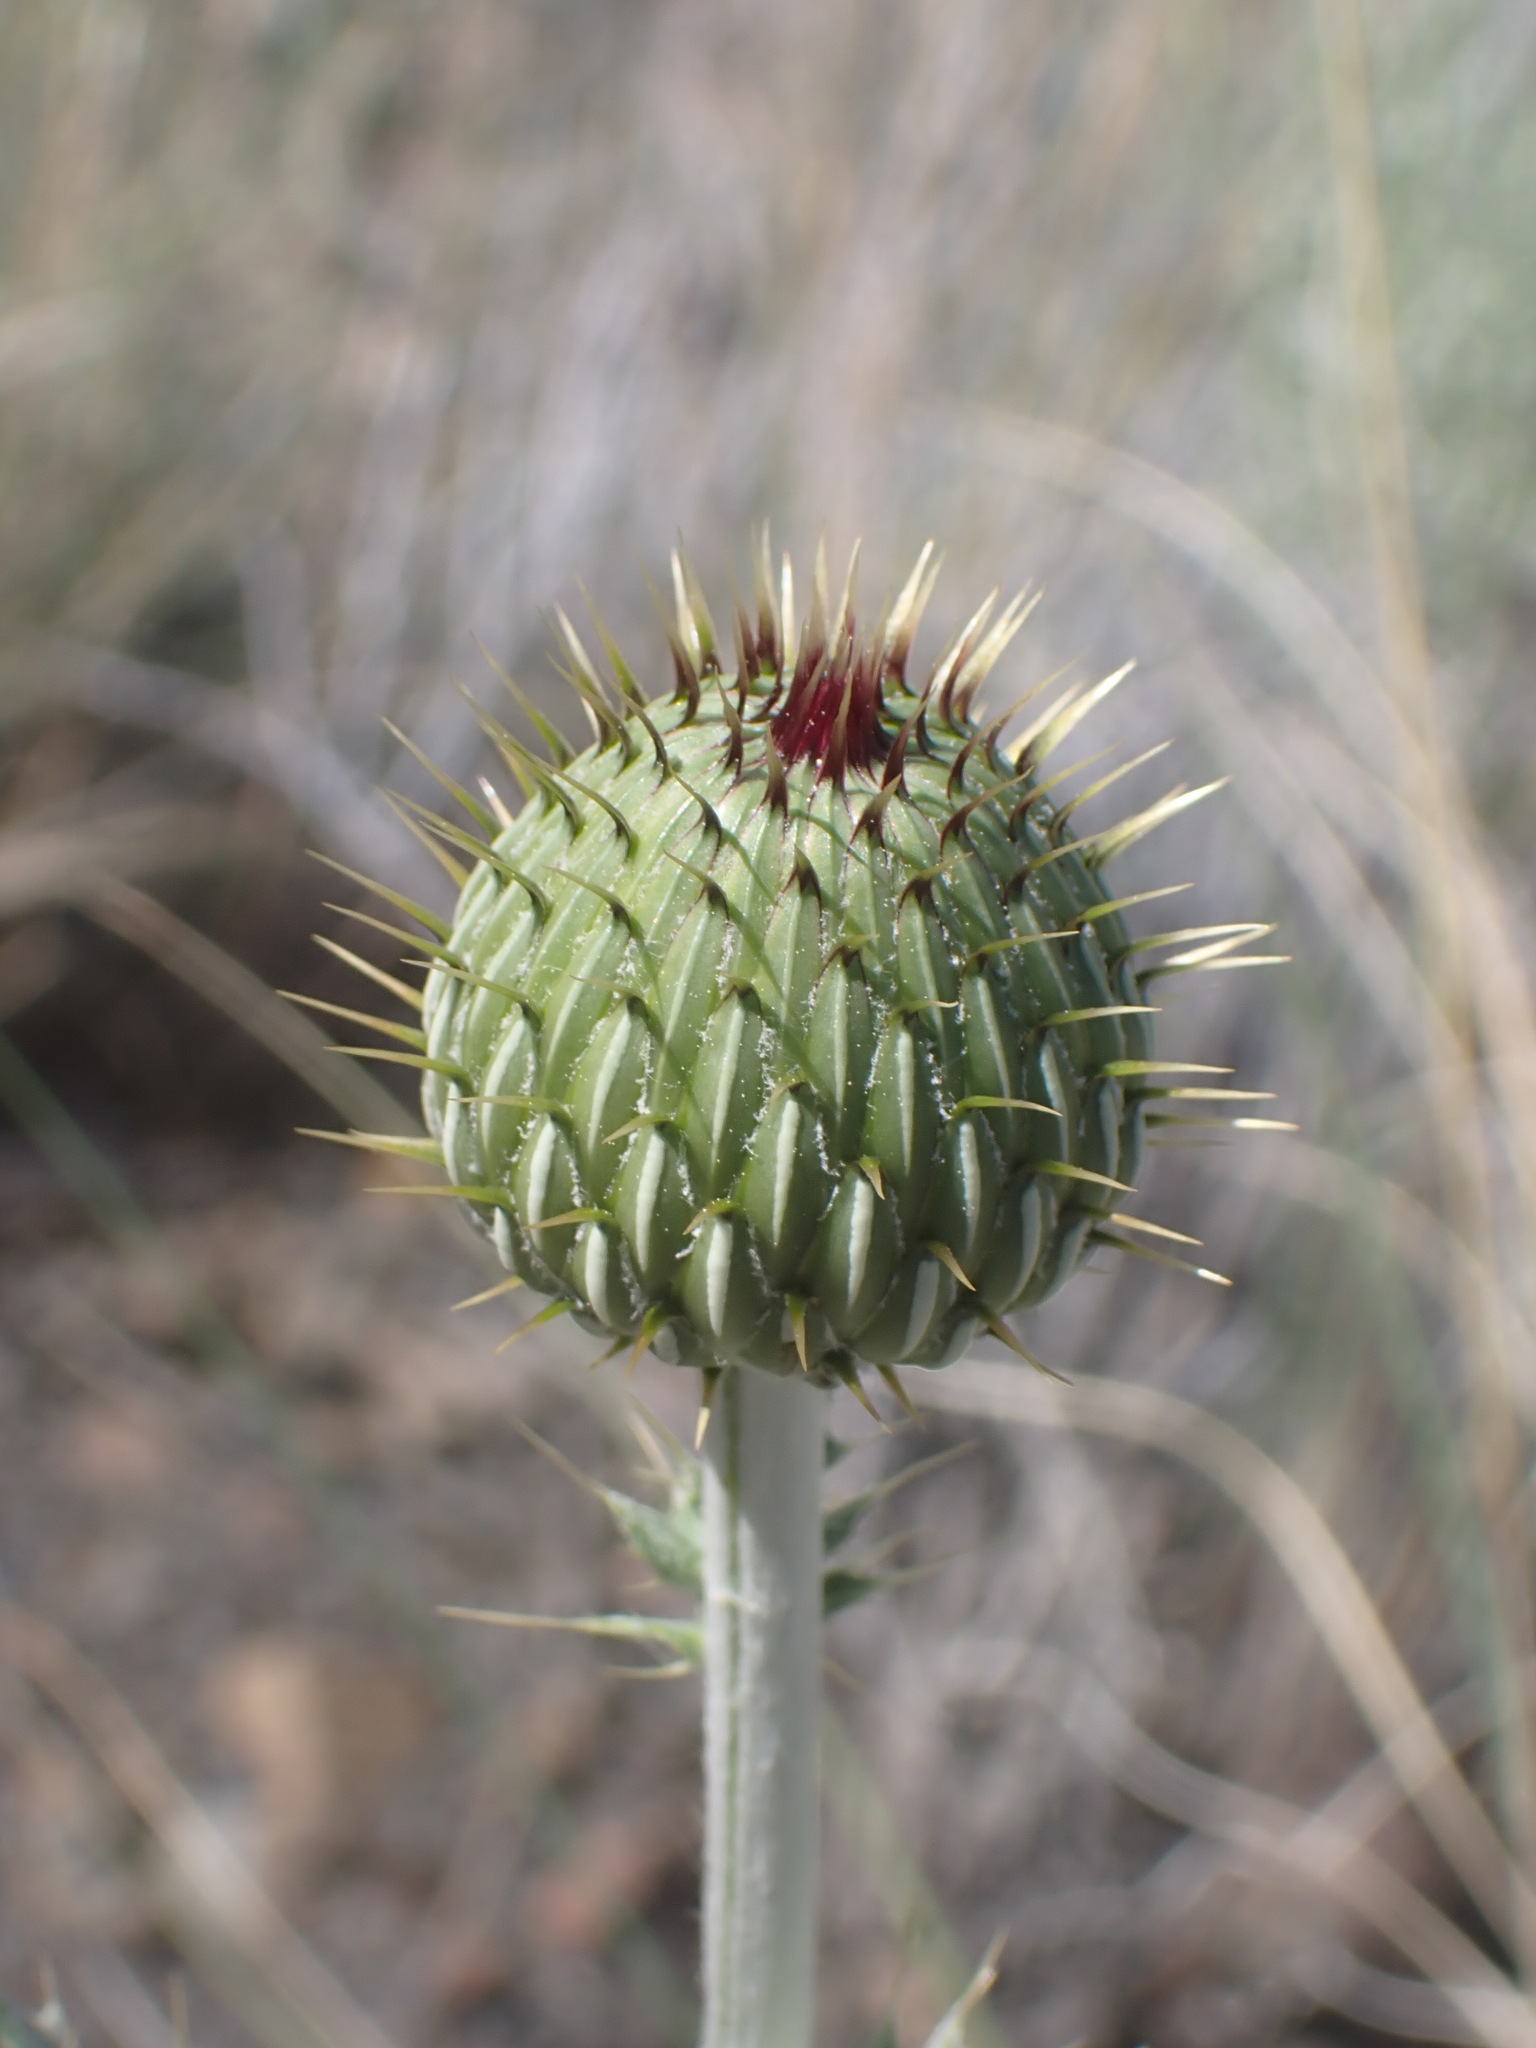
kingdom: Plantae
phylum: Tracheophyta
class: Magnoliopsida
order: Asterales
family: Asteraceae
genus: Cirsium
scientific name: Cirsium undulatum
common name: Pasture thistle
